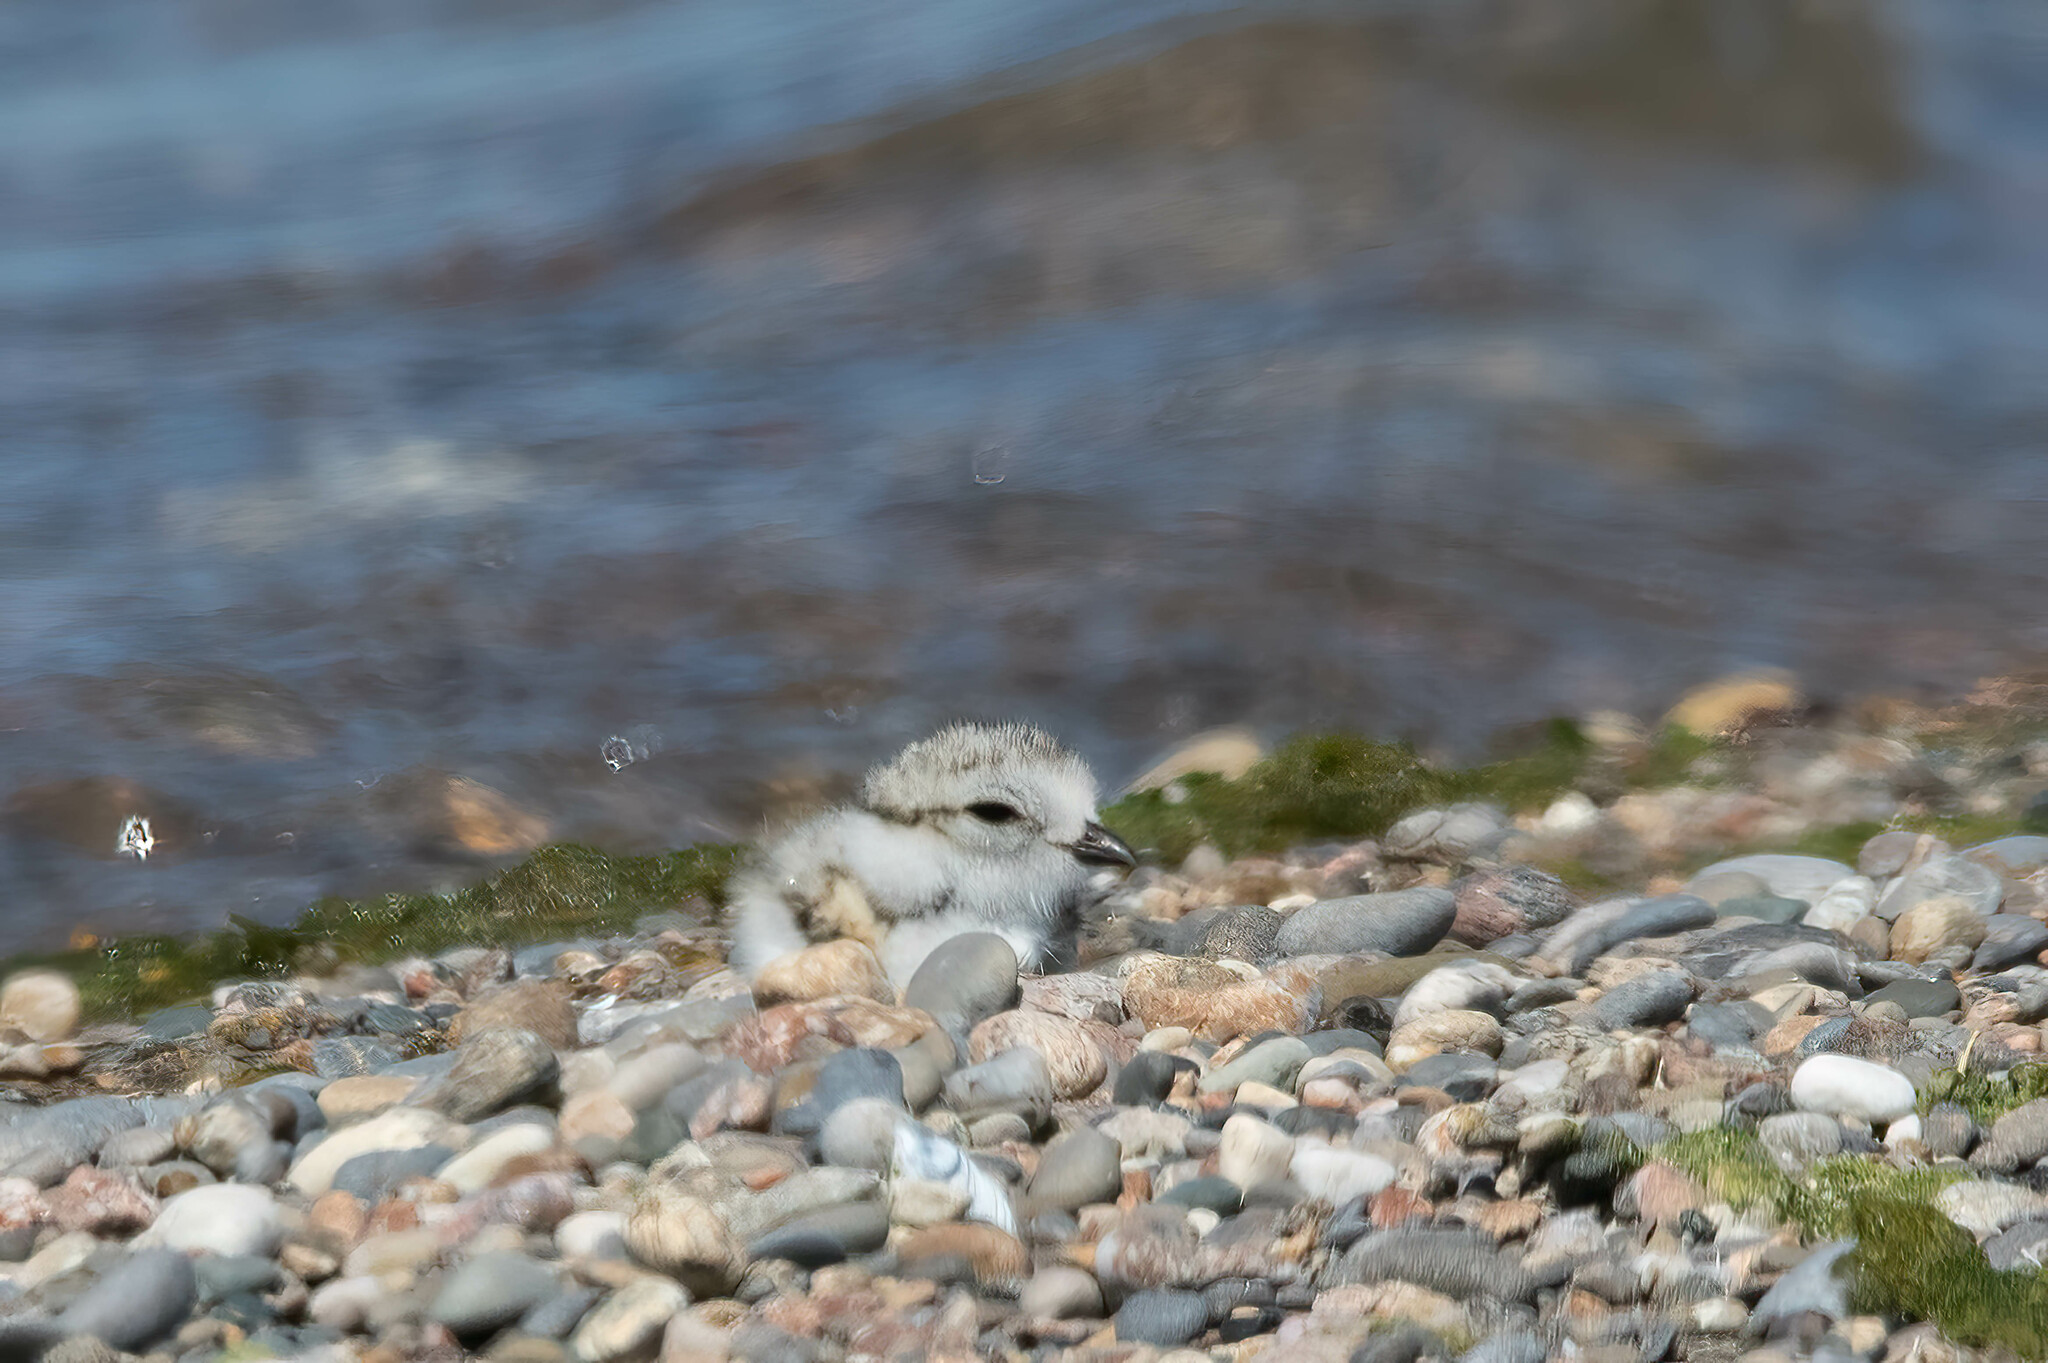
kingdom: Animalia
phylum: Chordata
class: Aves
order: Charadriiformes
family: Charadriidae
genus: Charadrius
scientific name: Charadrius melodus
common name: Piping plover
